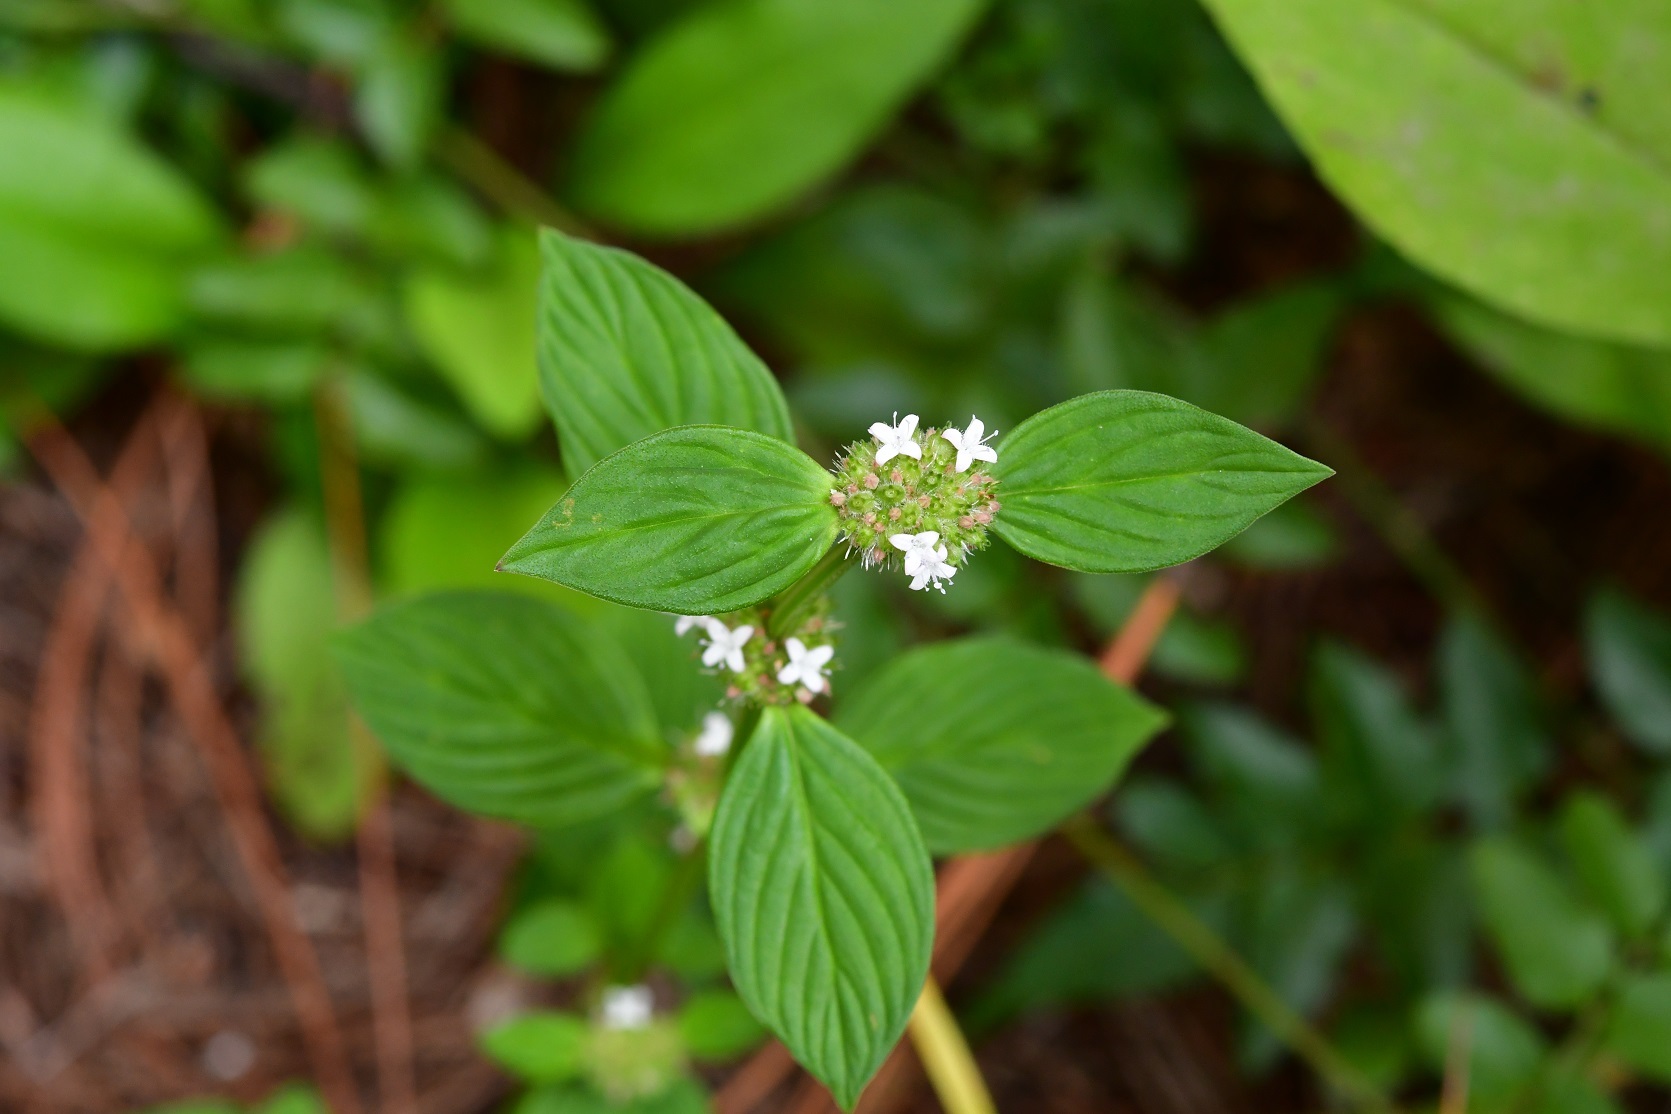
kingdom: Plantae
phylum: Tracheophyta
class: Magnoliopsida
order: Gentianales
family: Rubiaceae
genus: Spermacoce
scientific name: Spermacoce remota
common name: Woodland false buttonweed
